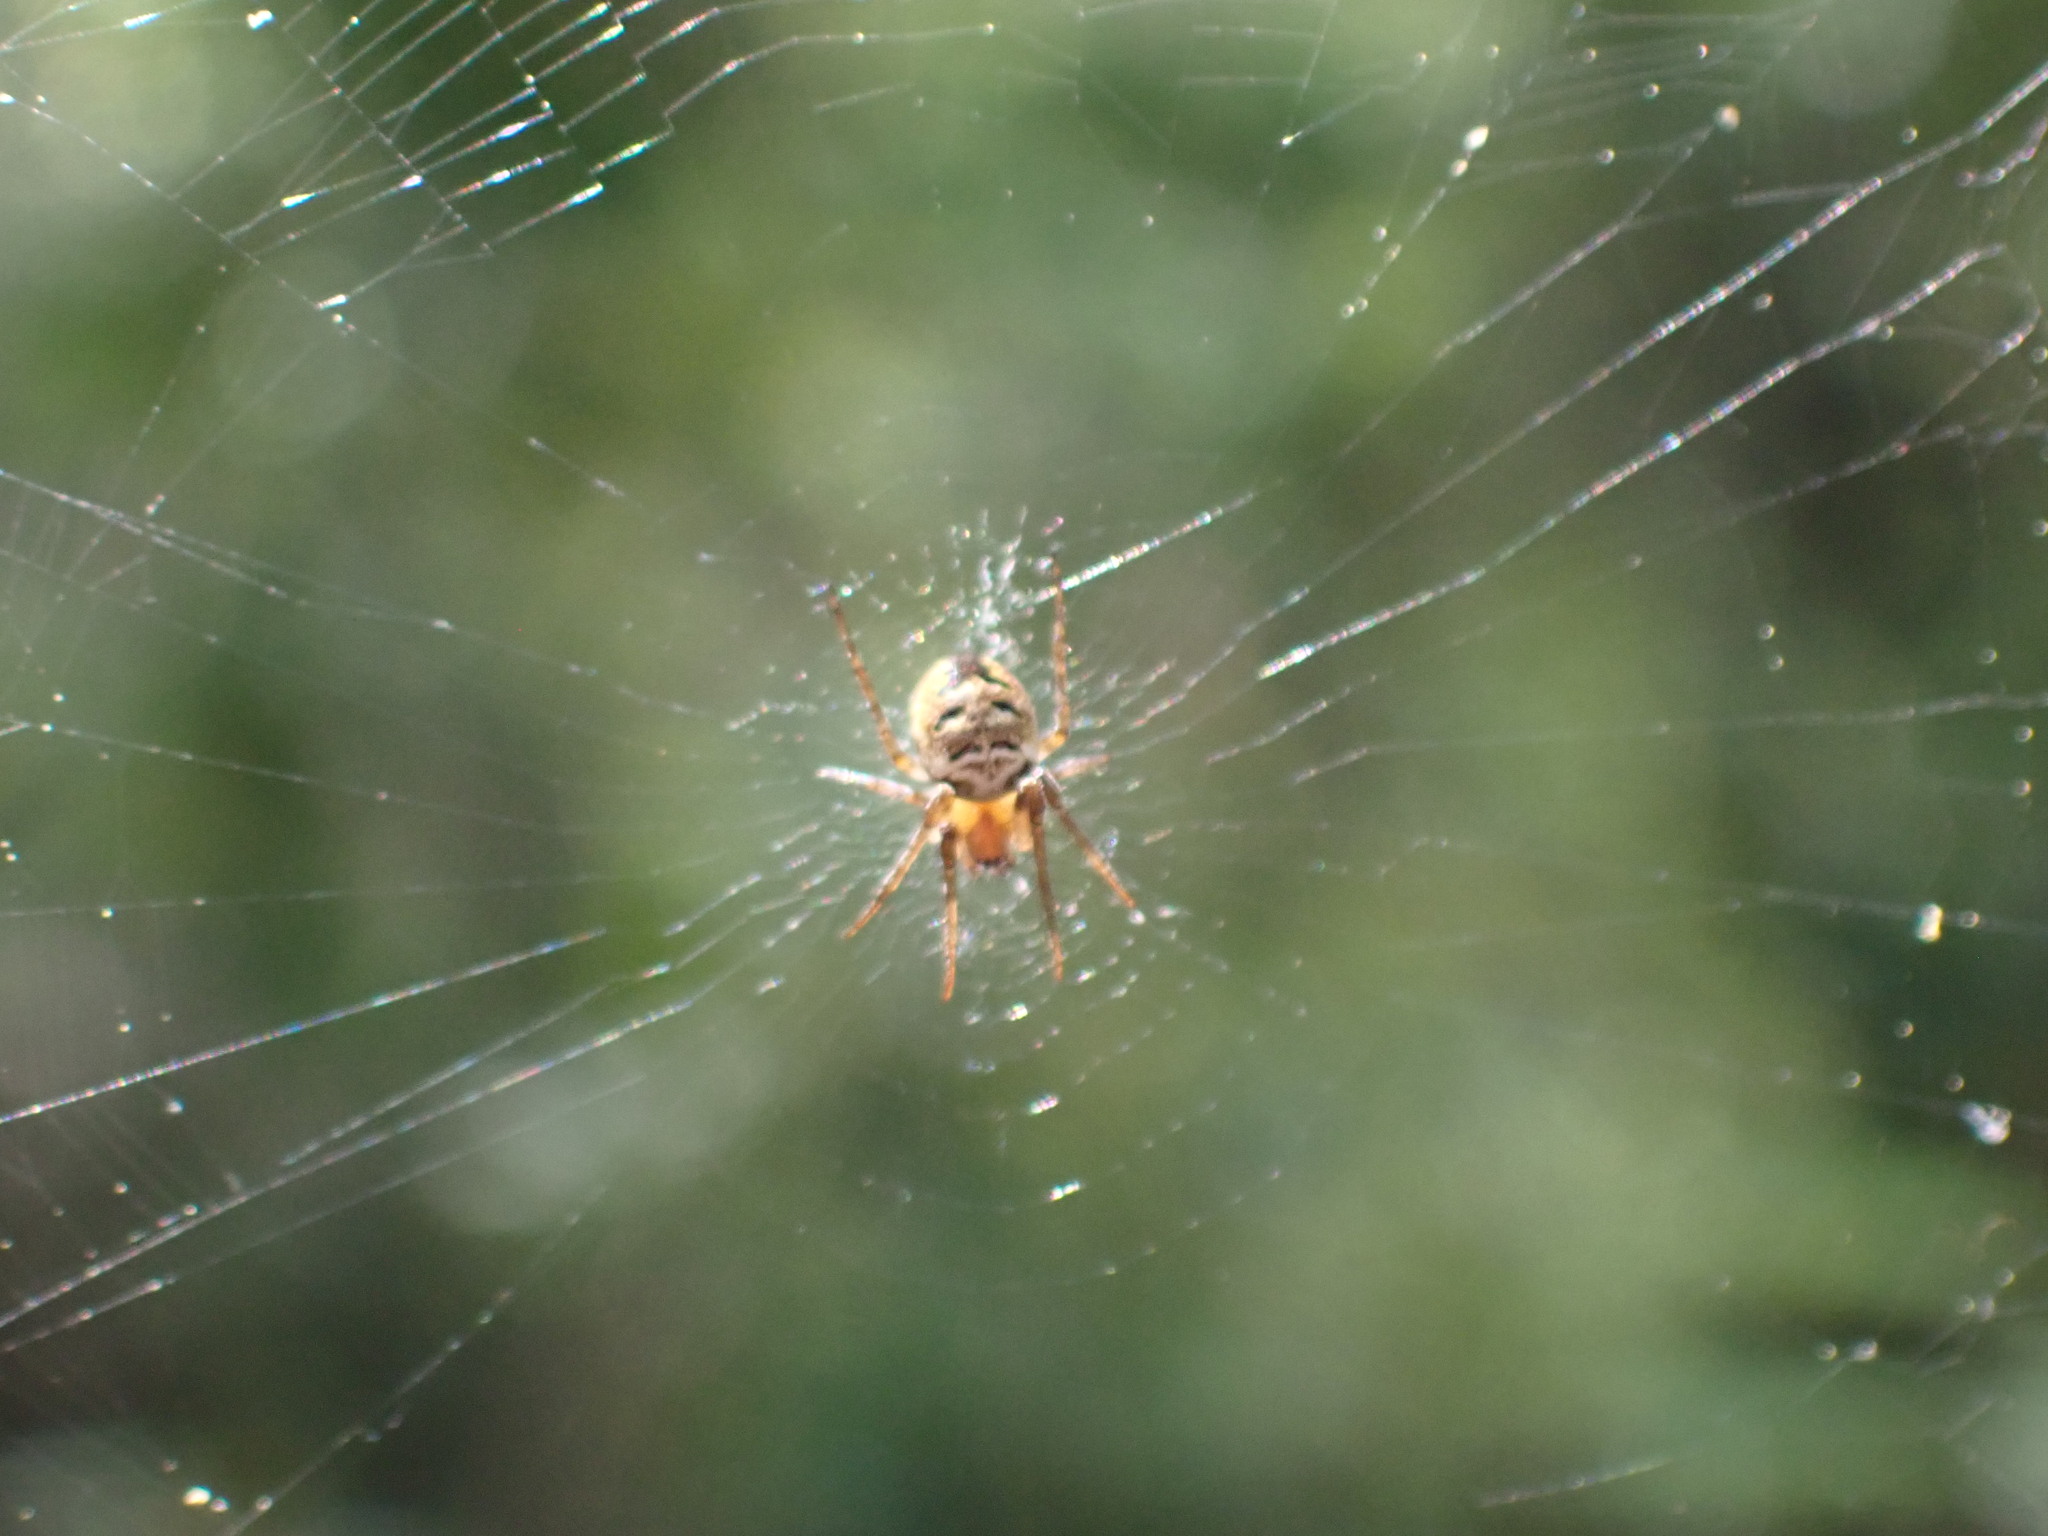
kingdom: Animalia
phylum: Arthropoda
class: Arachnida
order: Araneae
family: Araneidae
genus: Zilla
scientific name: Zilla diodia
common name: Zilla diodia
